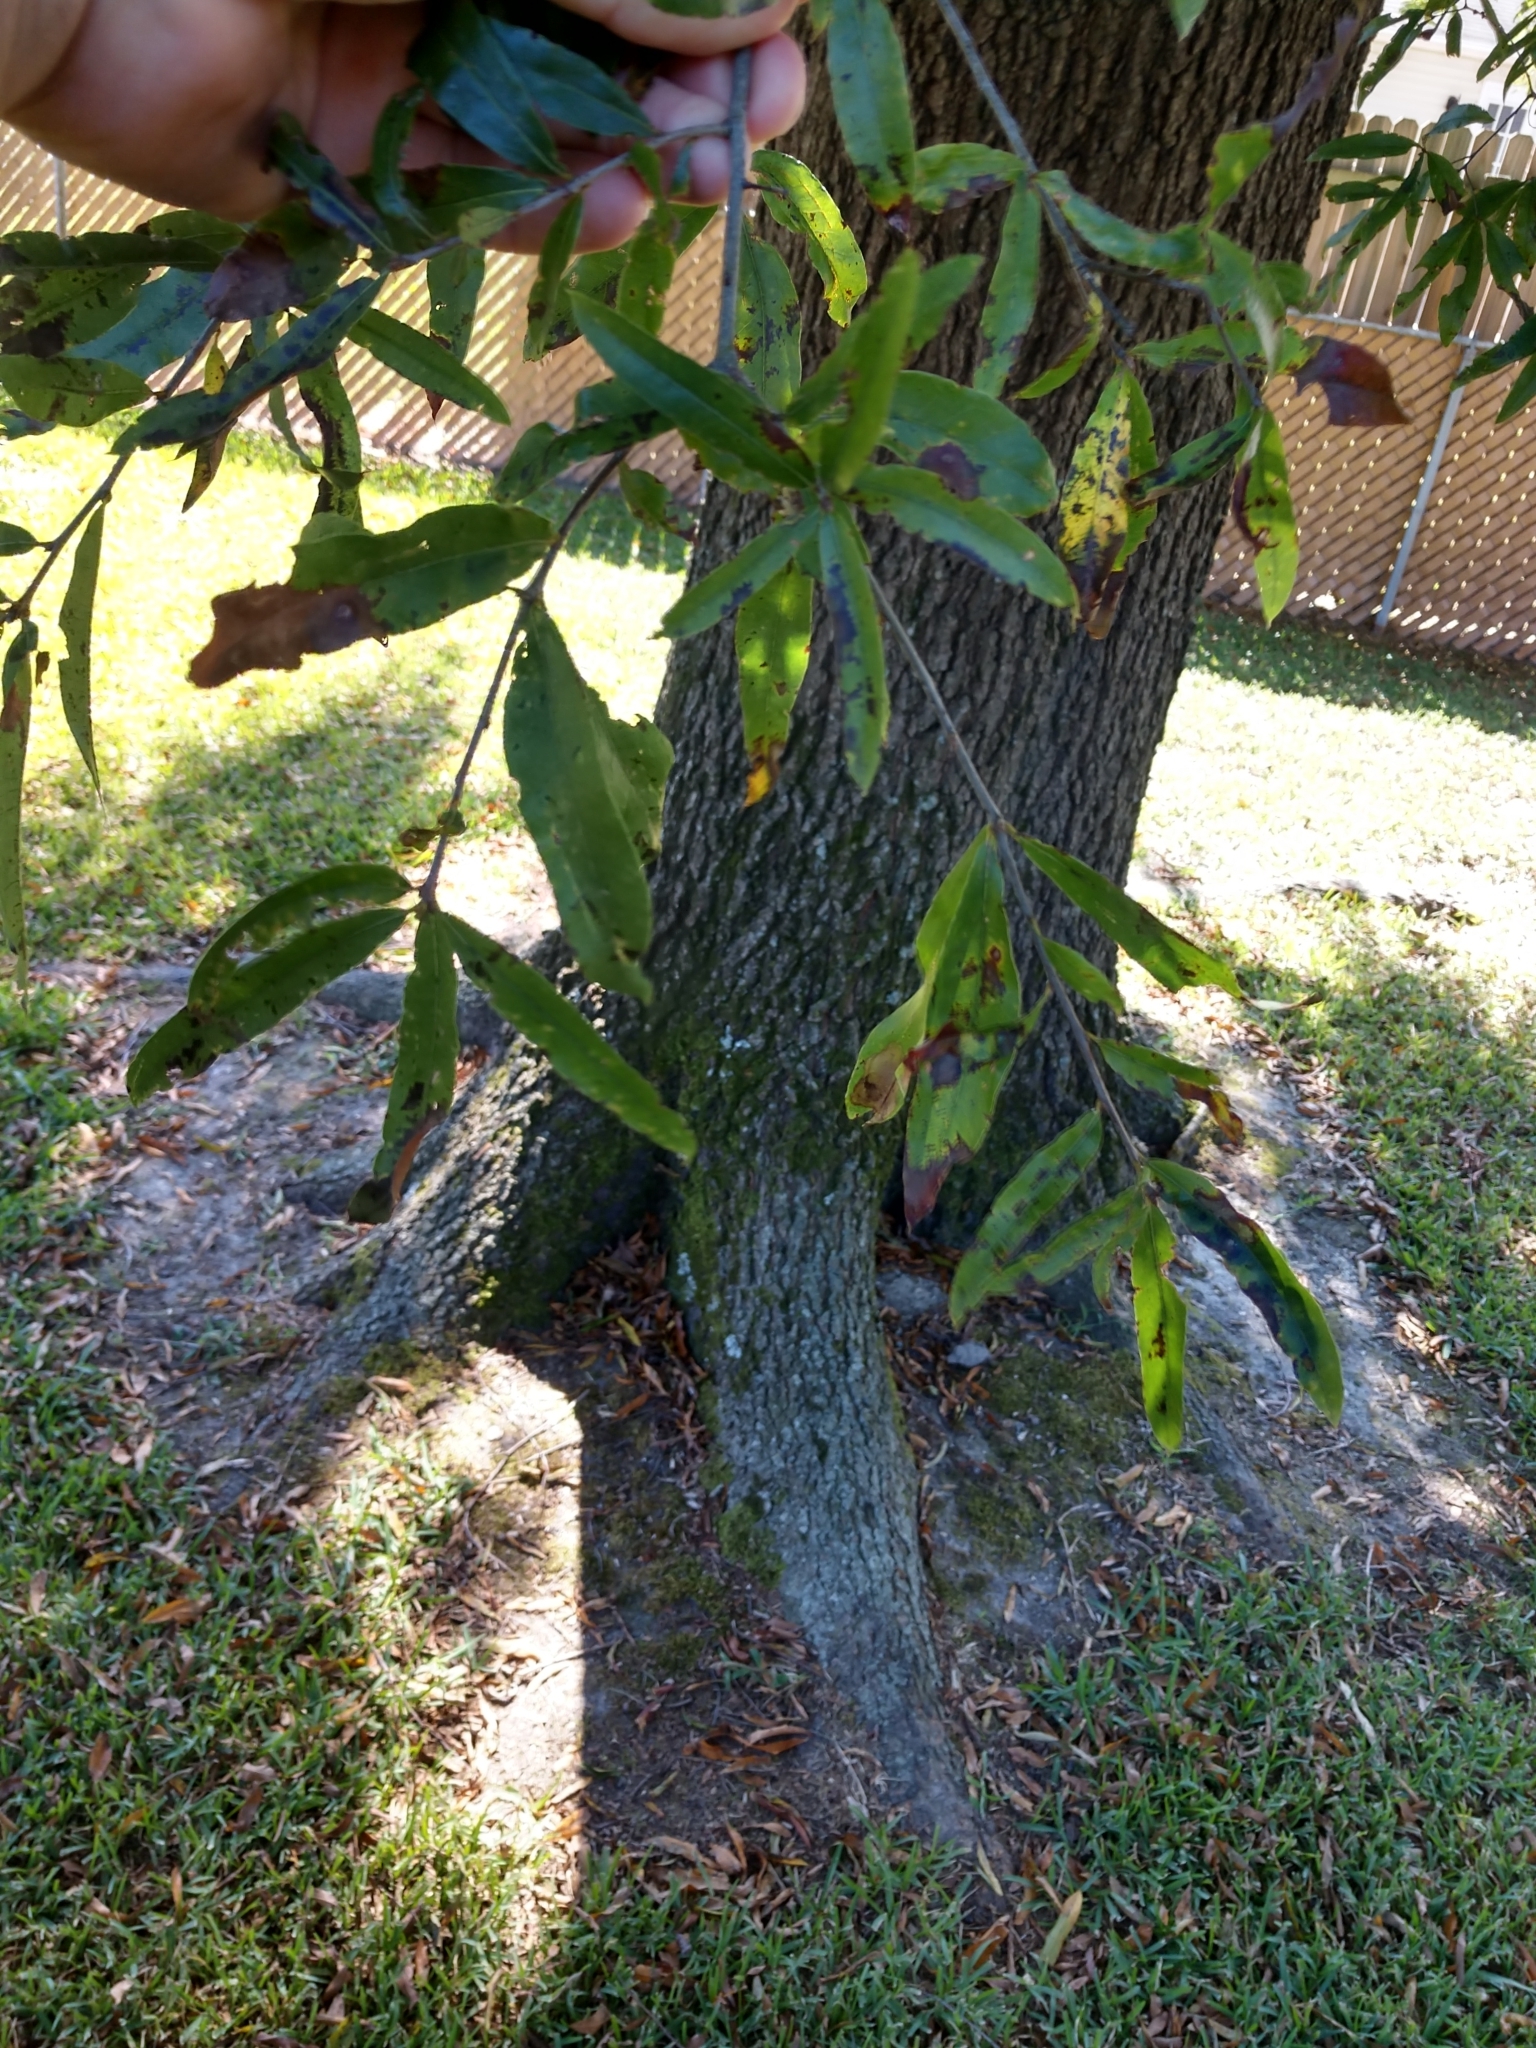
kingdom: Plantae
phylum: Tracheophyta
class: Magnoliopsida
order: Fagales
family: Fagaceae
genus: Quercus
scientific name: Quercus phellos
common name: Willow oak
